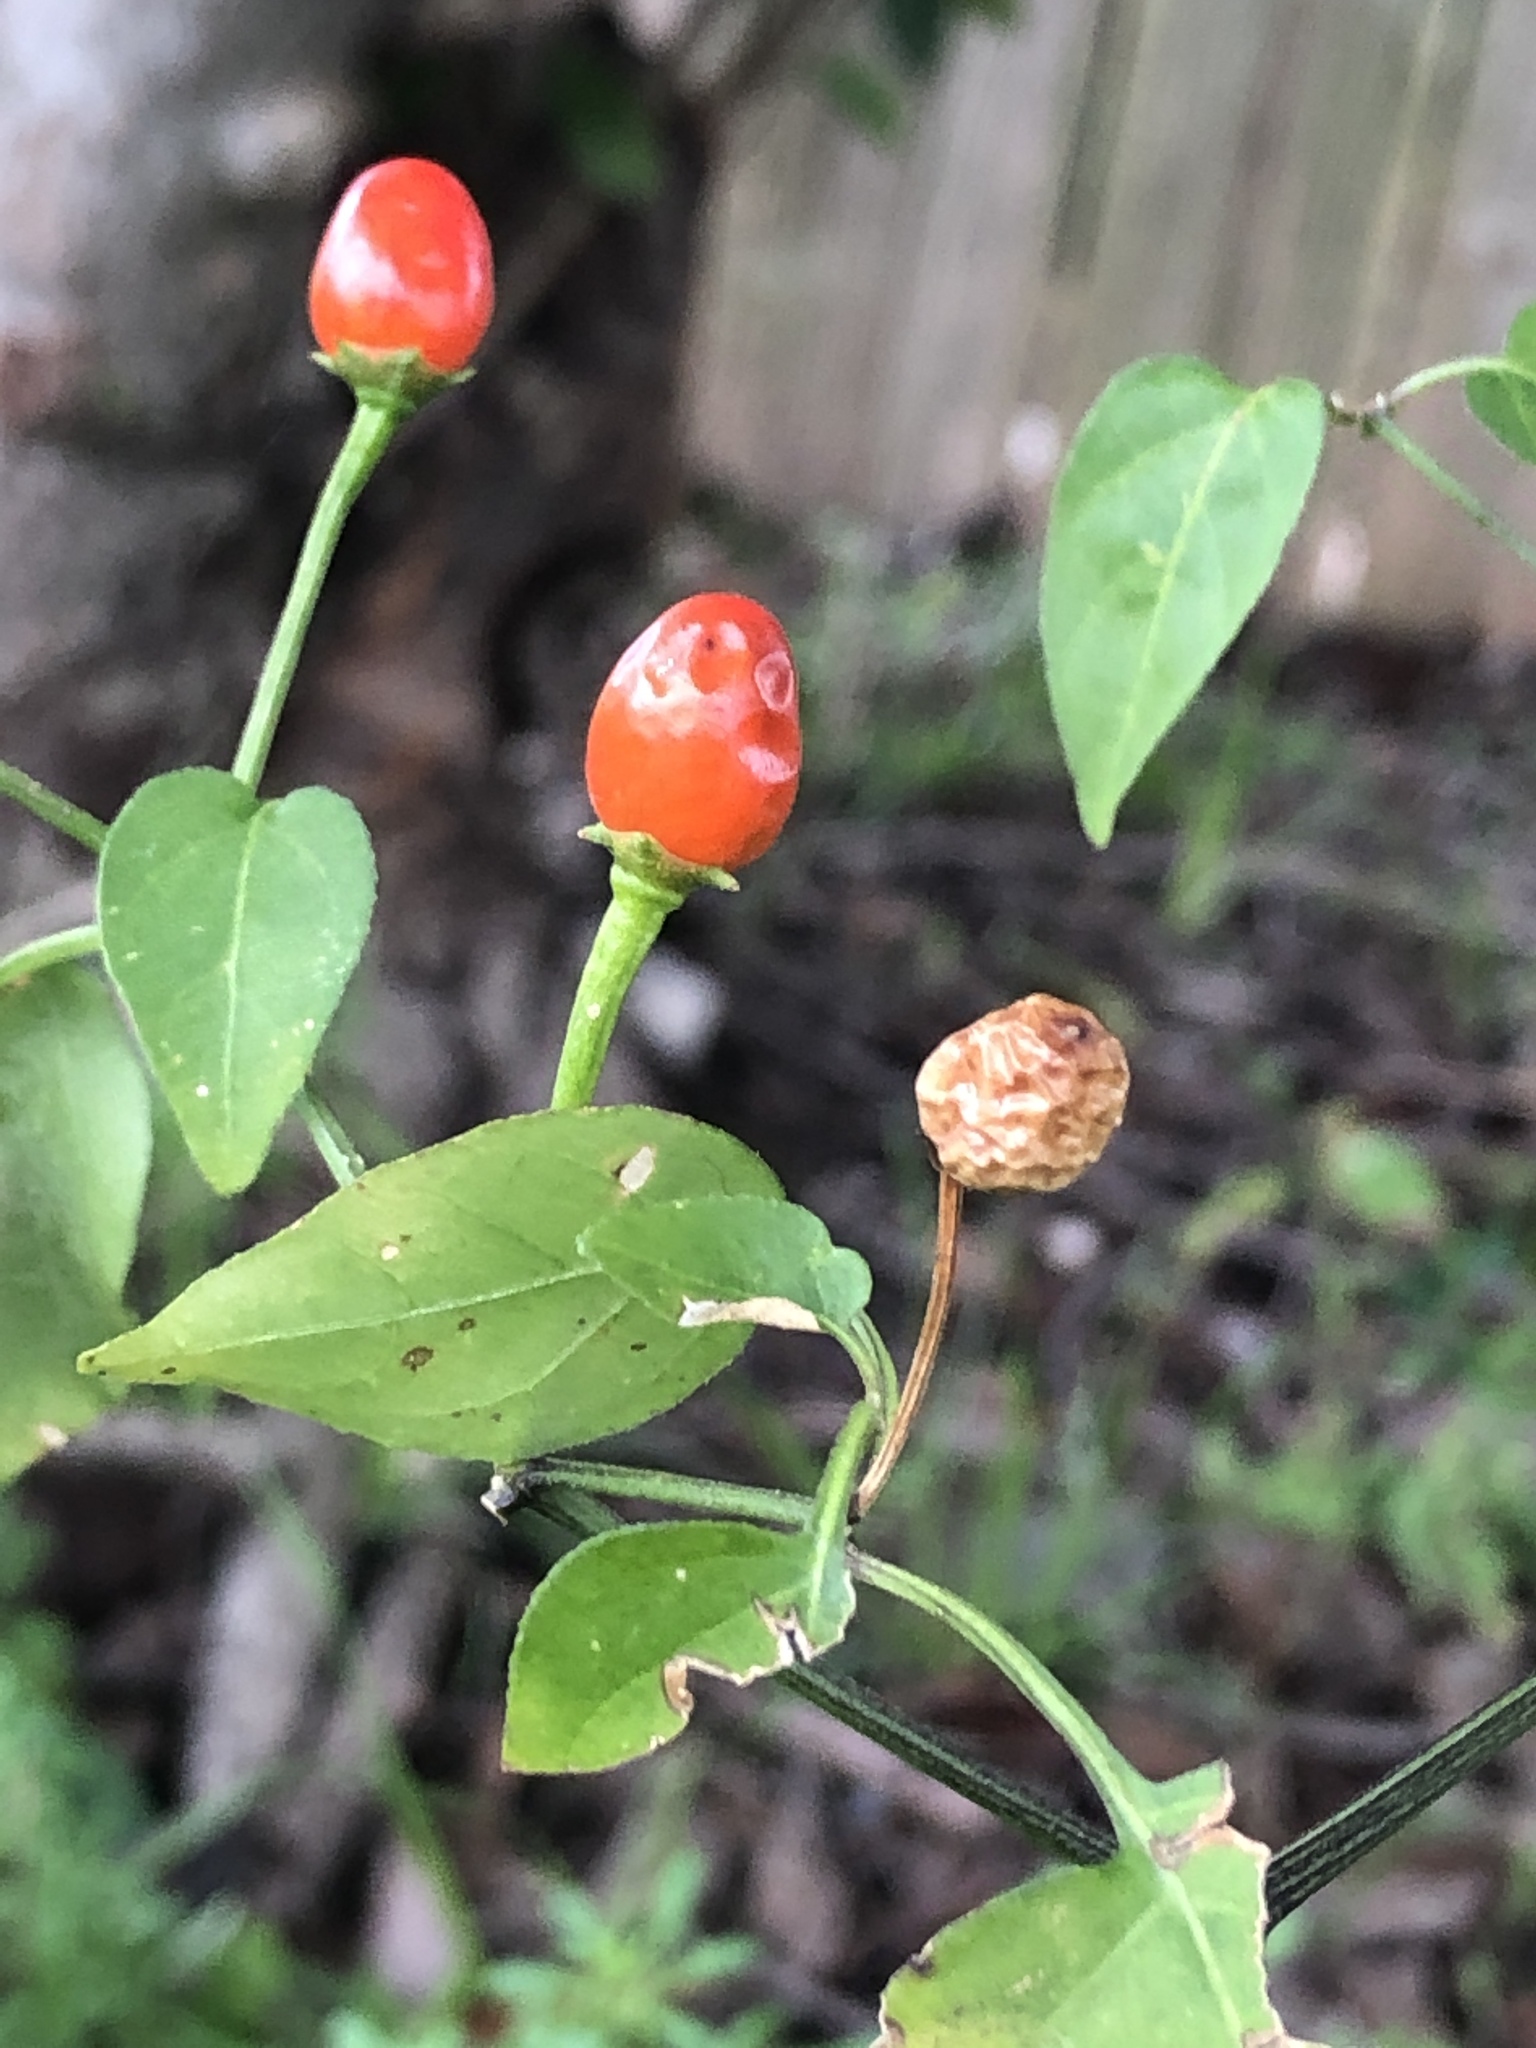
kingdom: Plantae
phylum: Tracheophyta
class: Magnoliopsida
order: Solanales
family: Solanaceae
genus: Capsicum
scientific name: Capsicum annuum
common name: Sweet pepper
